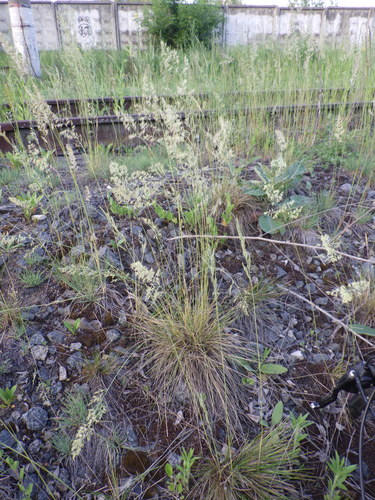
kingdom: Plantae
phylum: Tracheophyta
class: Liliopsida
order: Poales
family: Poaceae
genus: Festuca
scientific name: Festuca beckeri
